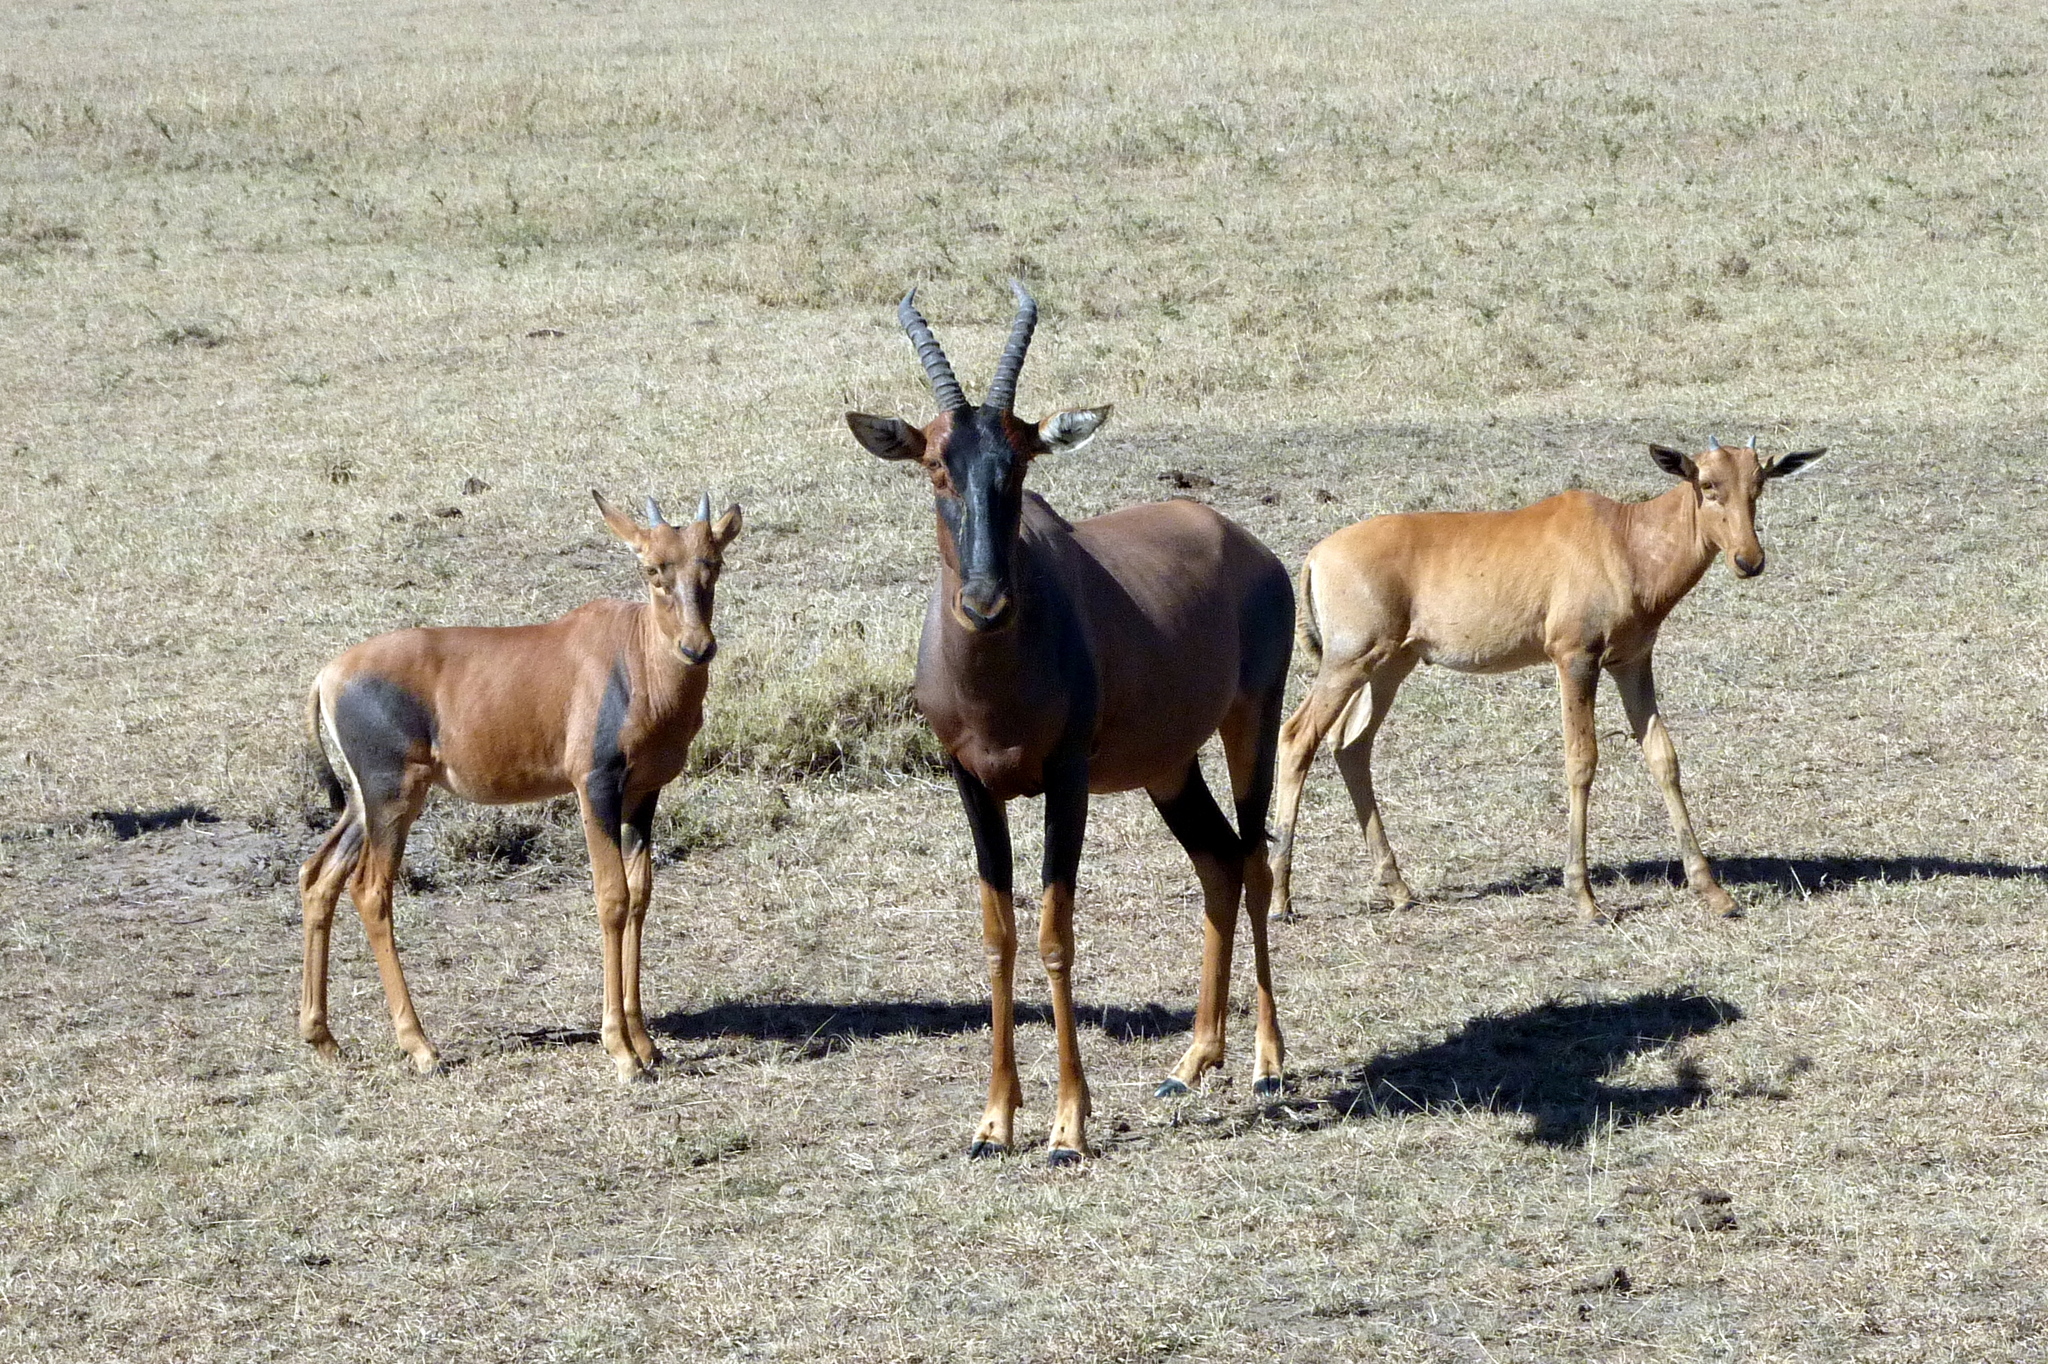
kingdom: Animalia
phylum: Chordata
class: Mammalia
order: Artiodactyla
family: Bovidae
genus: Damaliscus
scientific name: Damaliscus korrigum
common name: Topi
